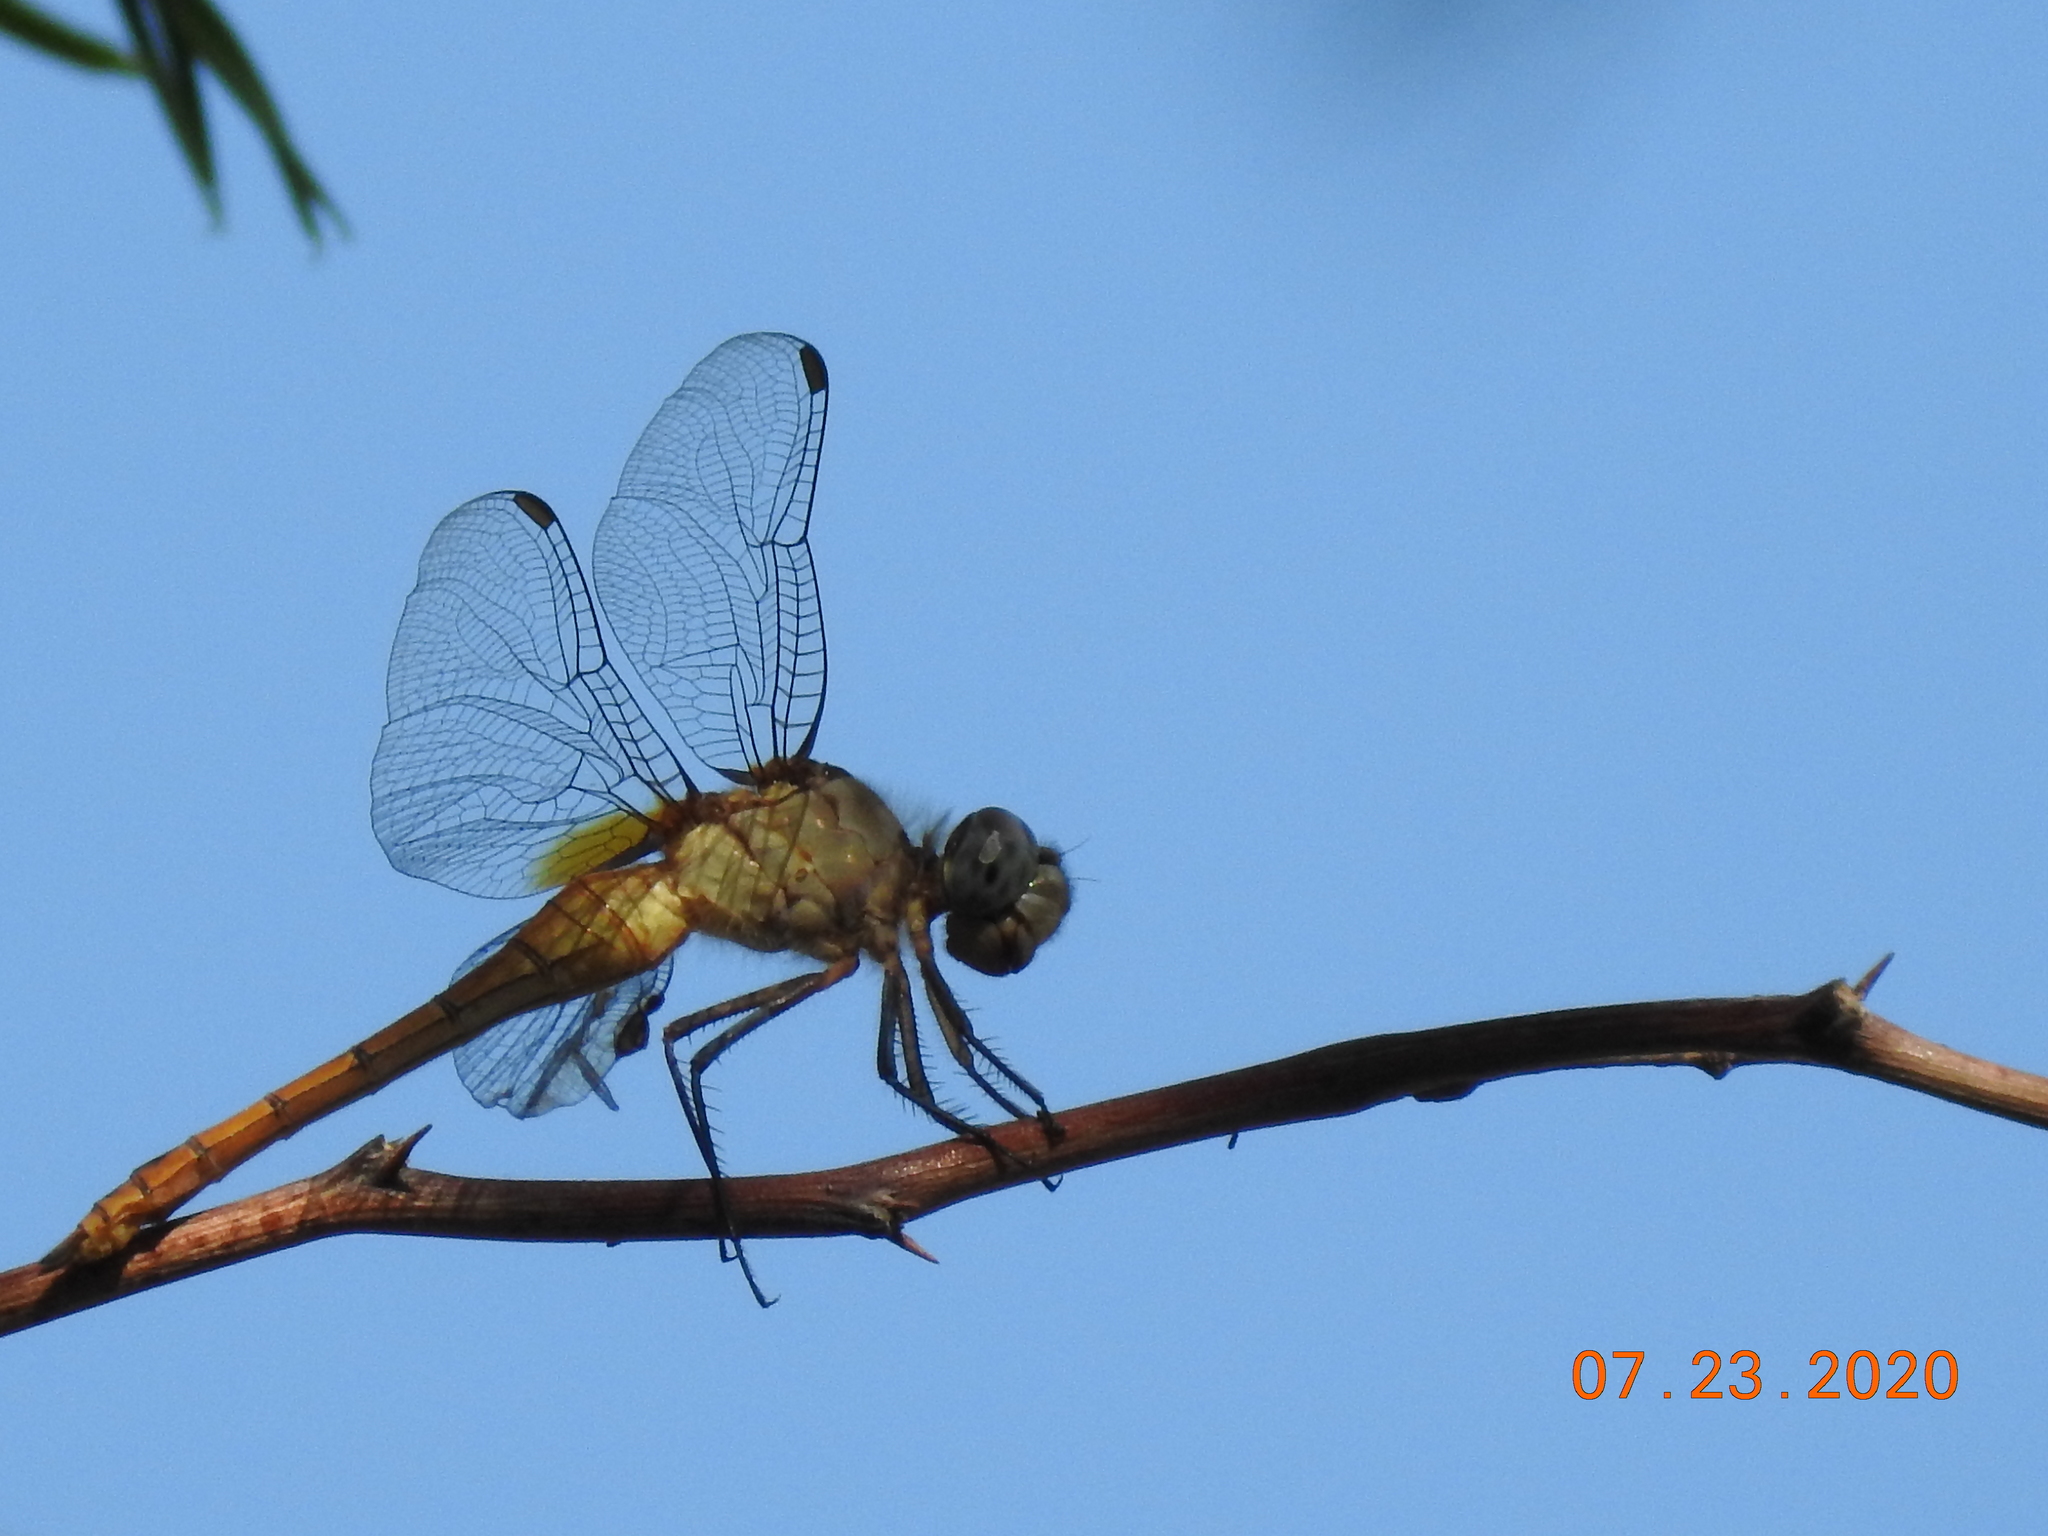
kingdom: Animalia
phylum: Arthropoda
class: Insecta
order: Odonata
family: Libellulidae
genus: Brachymesia
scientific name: Brachymesia furcata
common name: Red-taled pennant
